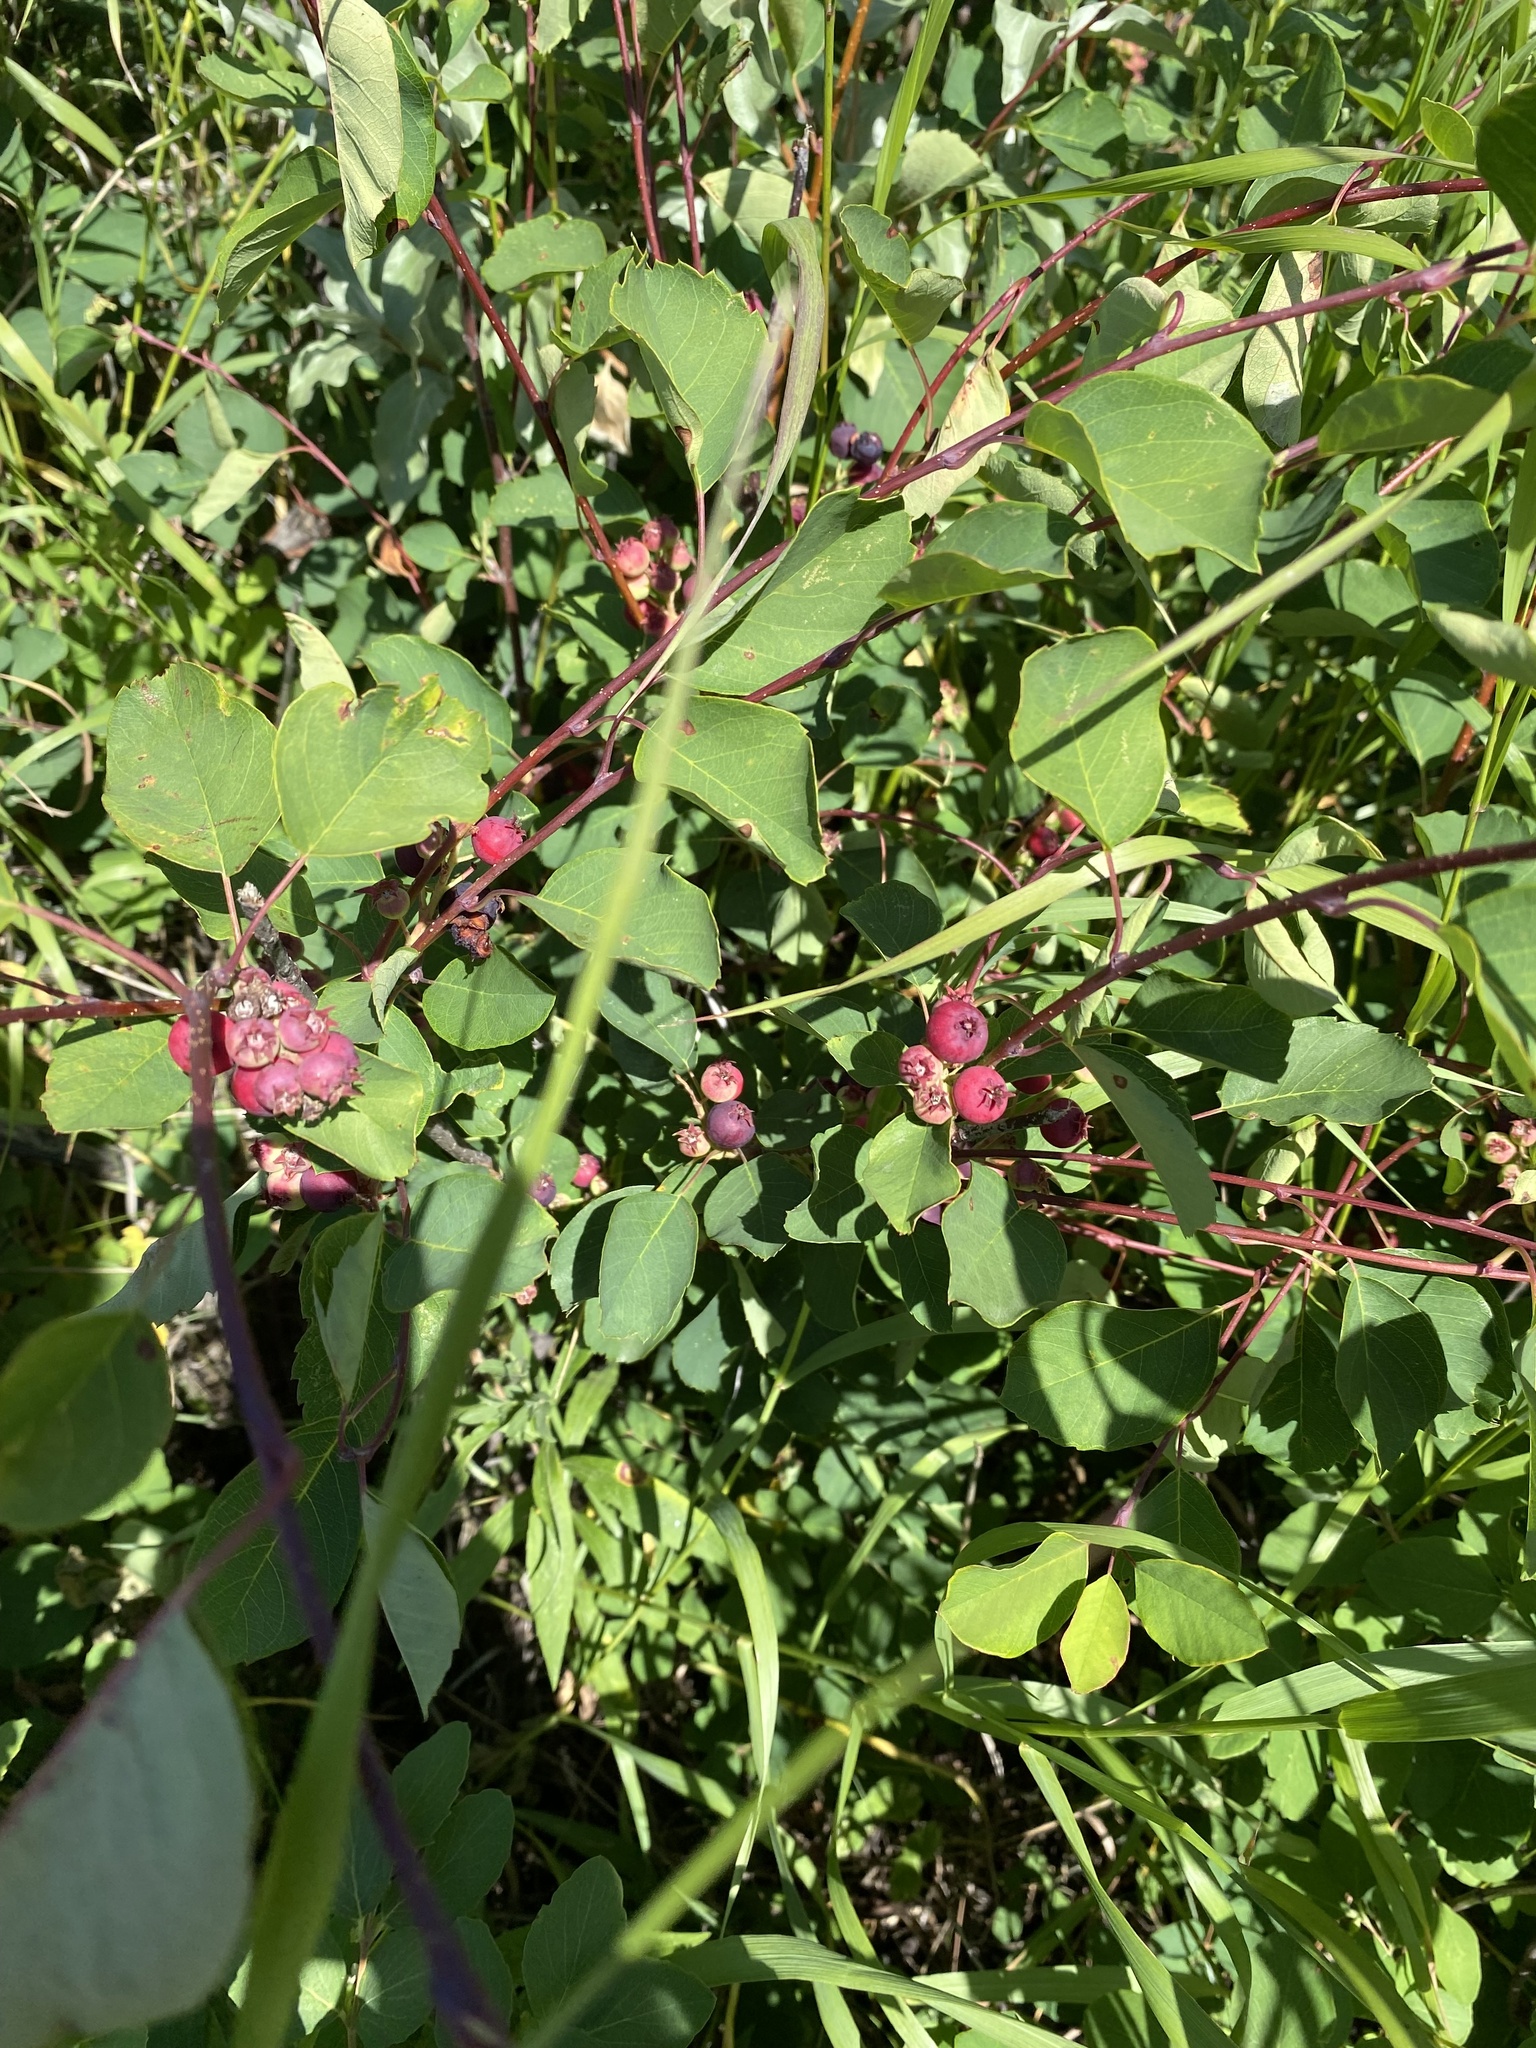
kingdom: Plantae
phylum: Tracheophyta
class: Magnoliopsida
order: Rosales
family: Rosaceae
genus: Amelanchier
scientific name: Amelanchier alnifolia
